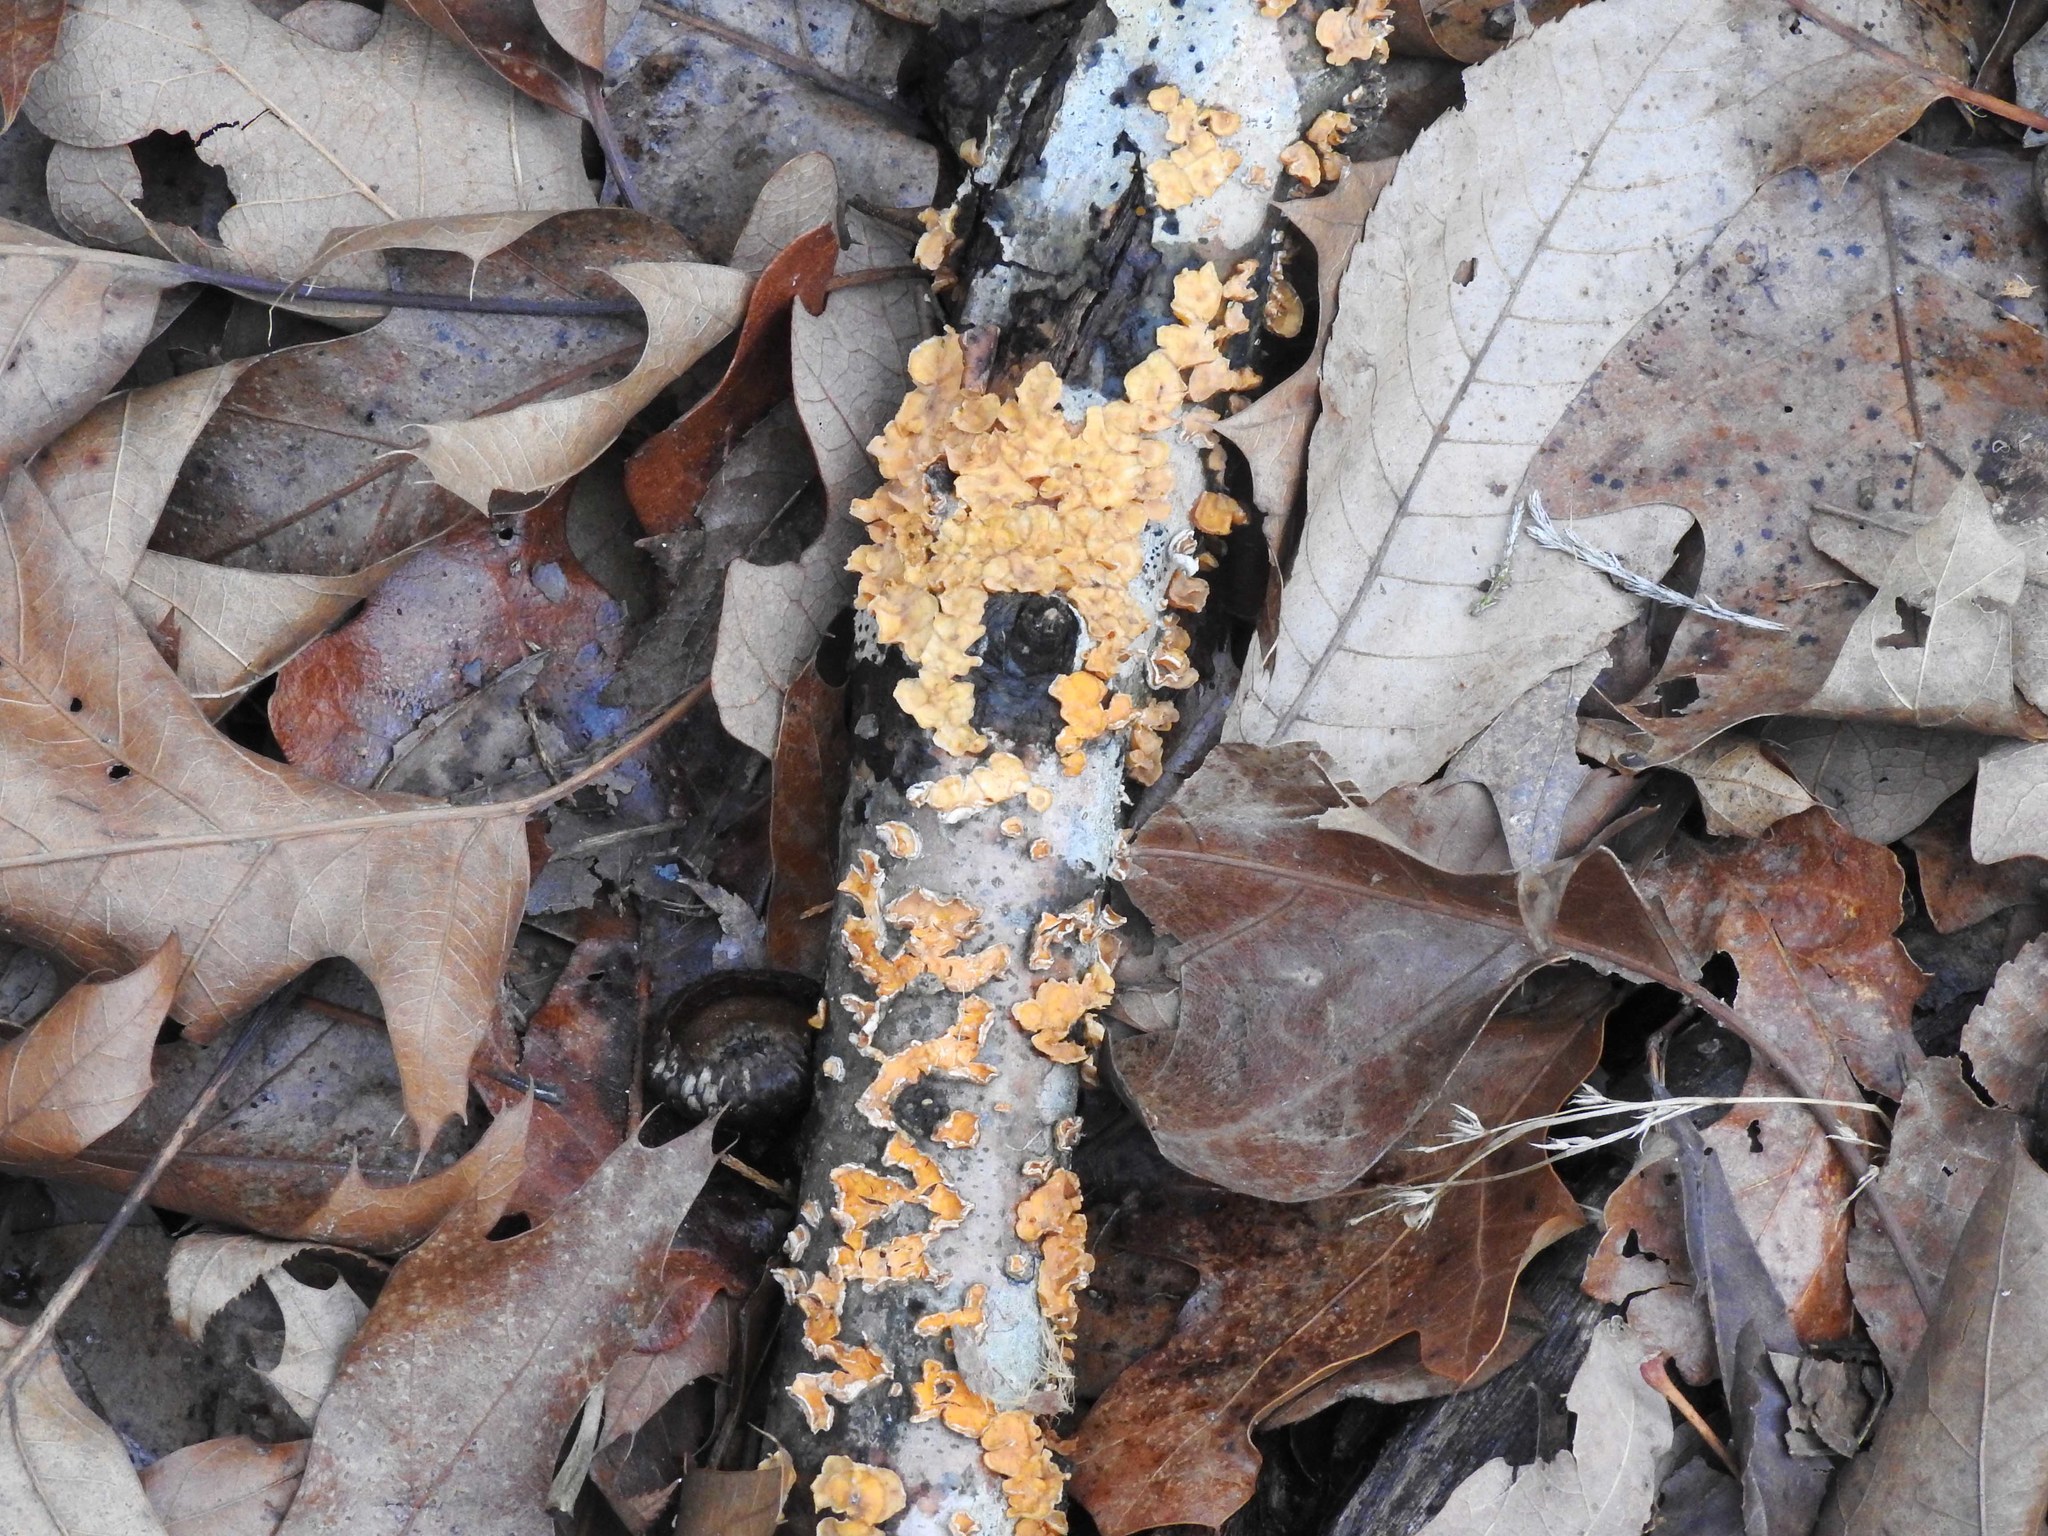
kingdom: Fungi
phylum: Basidiomycota
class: Agaricomycetes
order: Russulales
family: Stereaceae
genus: Stereum
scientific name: Stereum complicatum
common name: Crowded parchment
